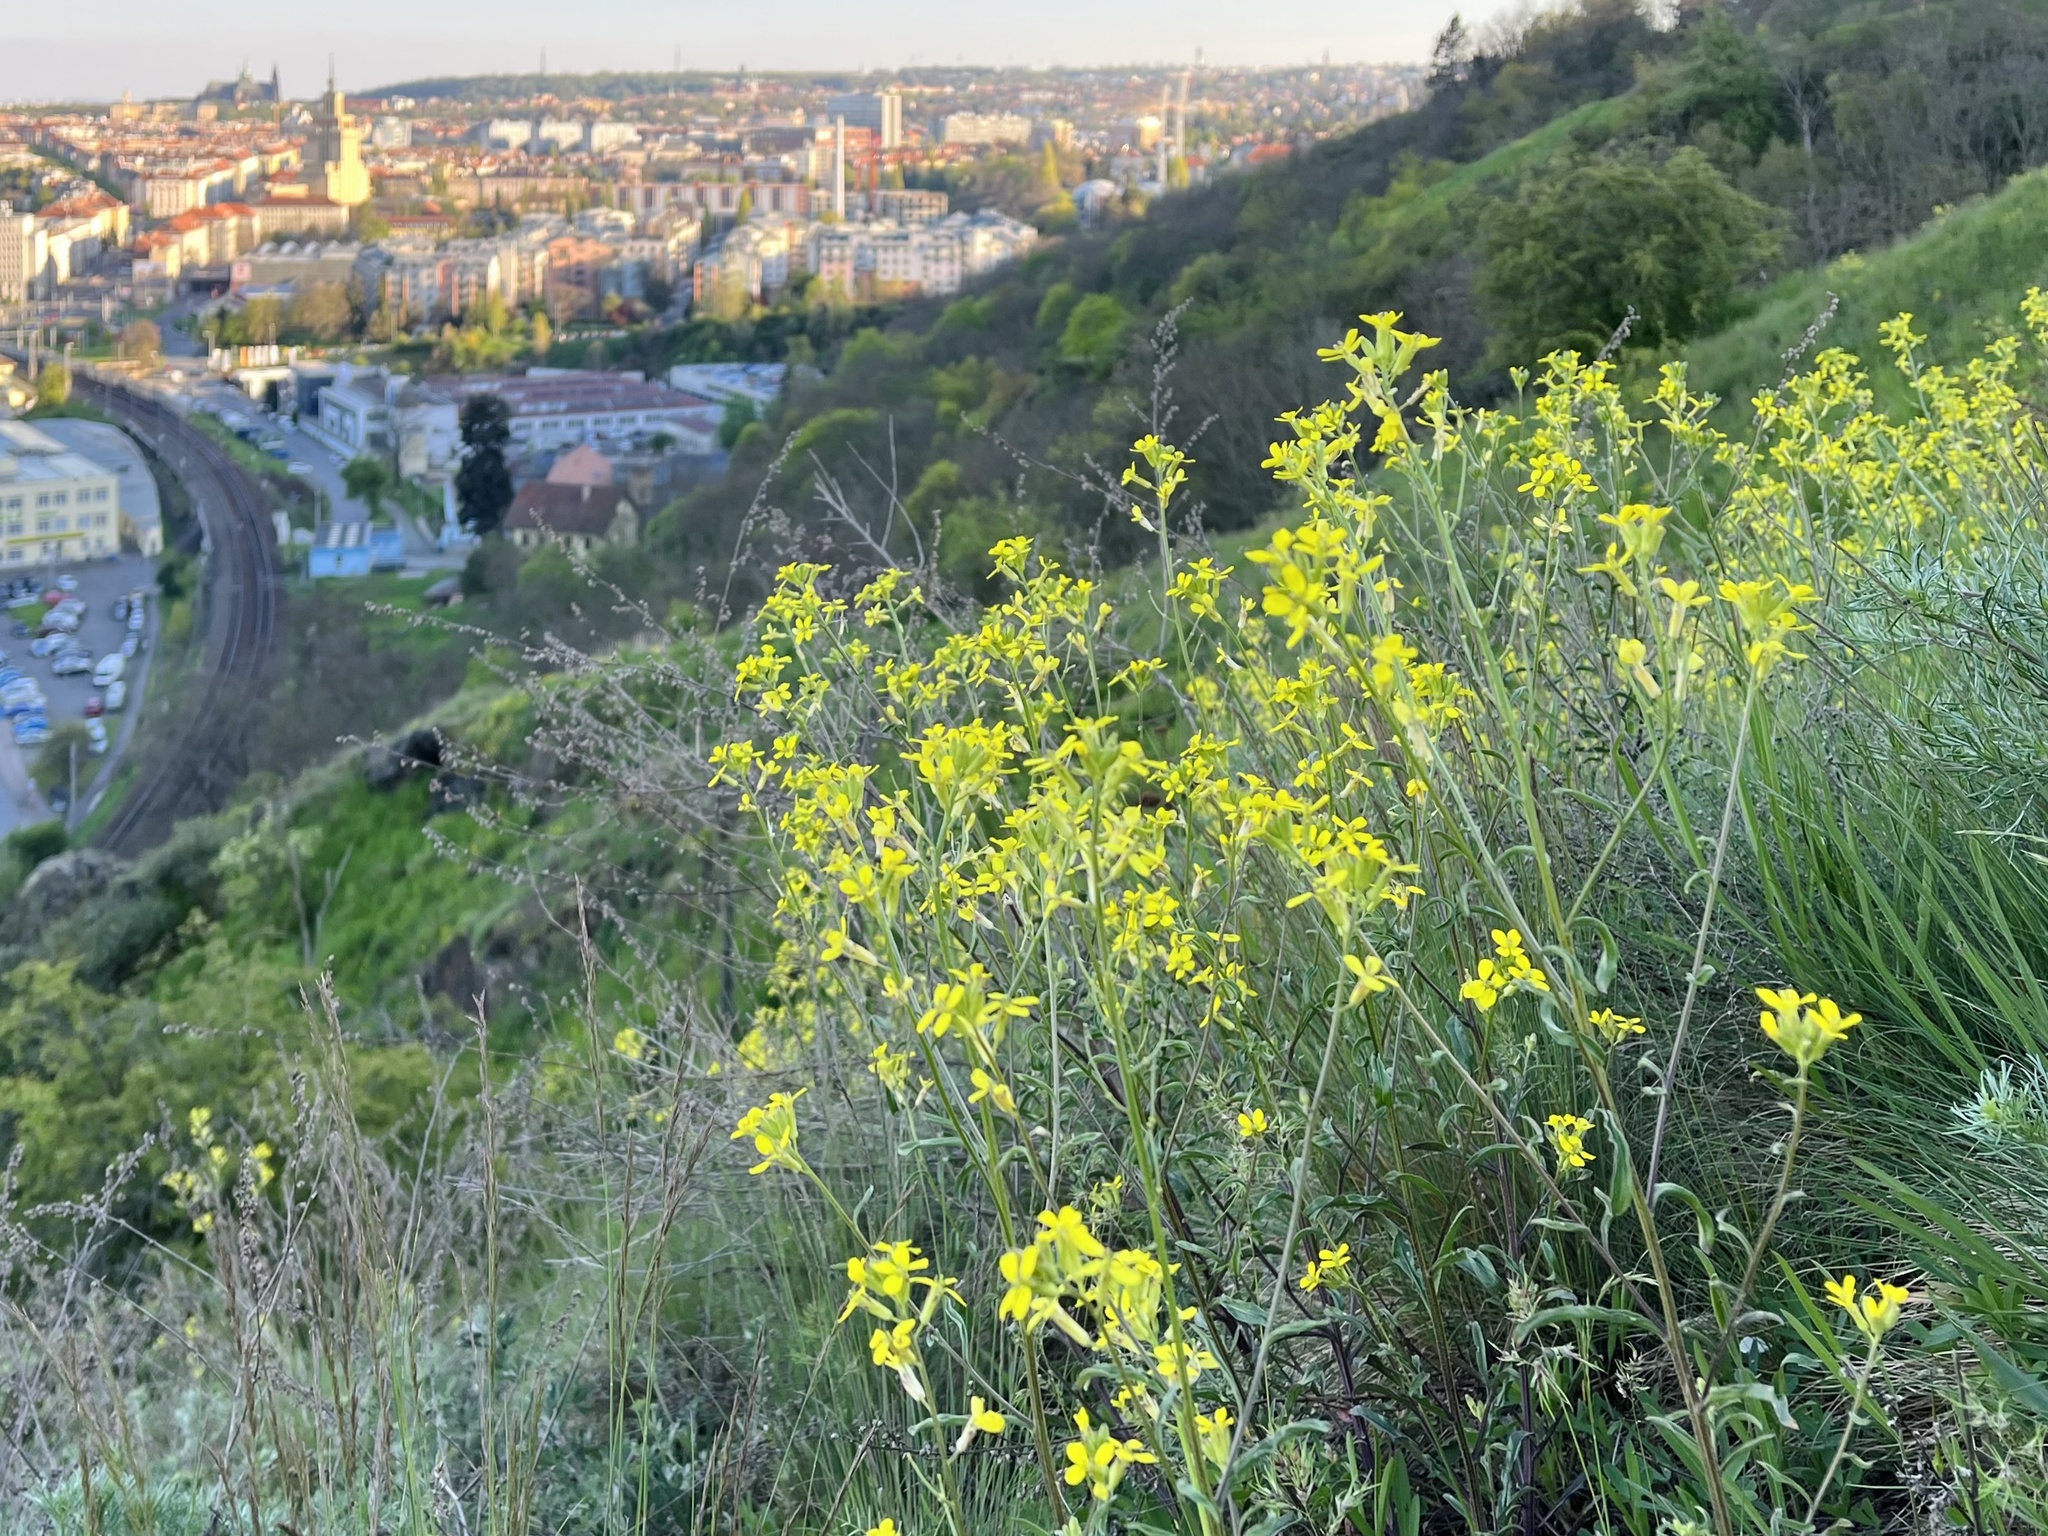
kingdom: Plantae
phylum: Tracheophyta
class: Magnoliopsida
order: Brassicales
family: Brassicaceae
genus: Erysimum
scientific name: Erysimum crepidifolium
